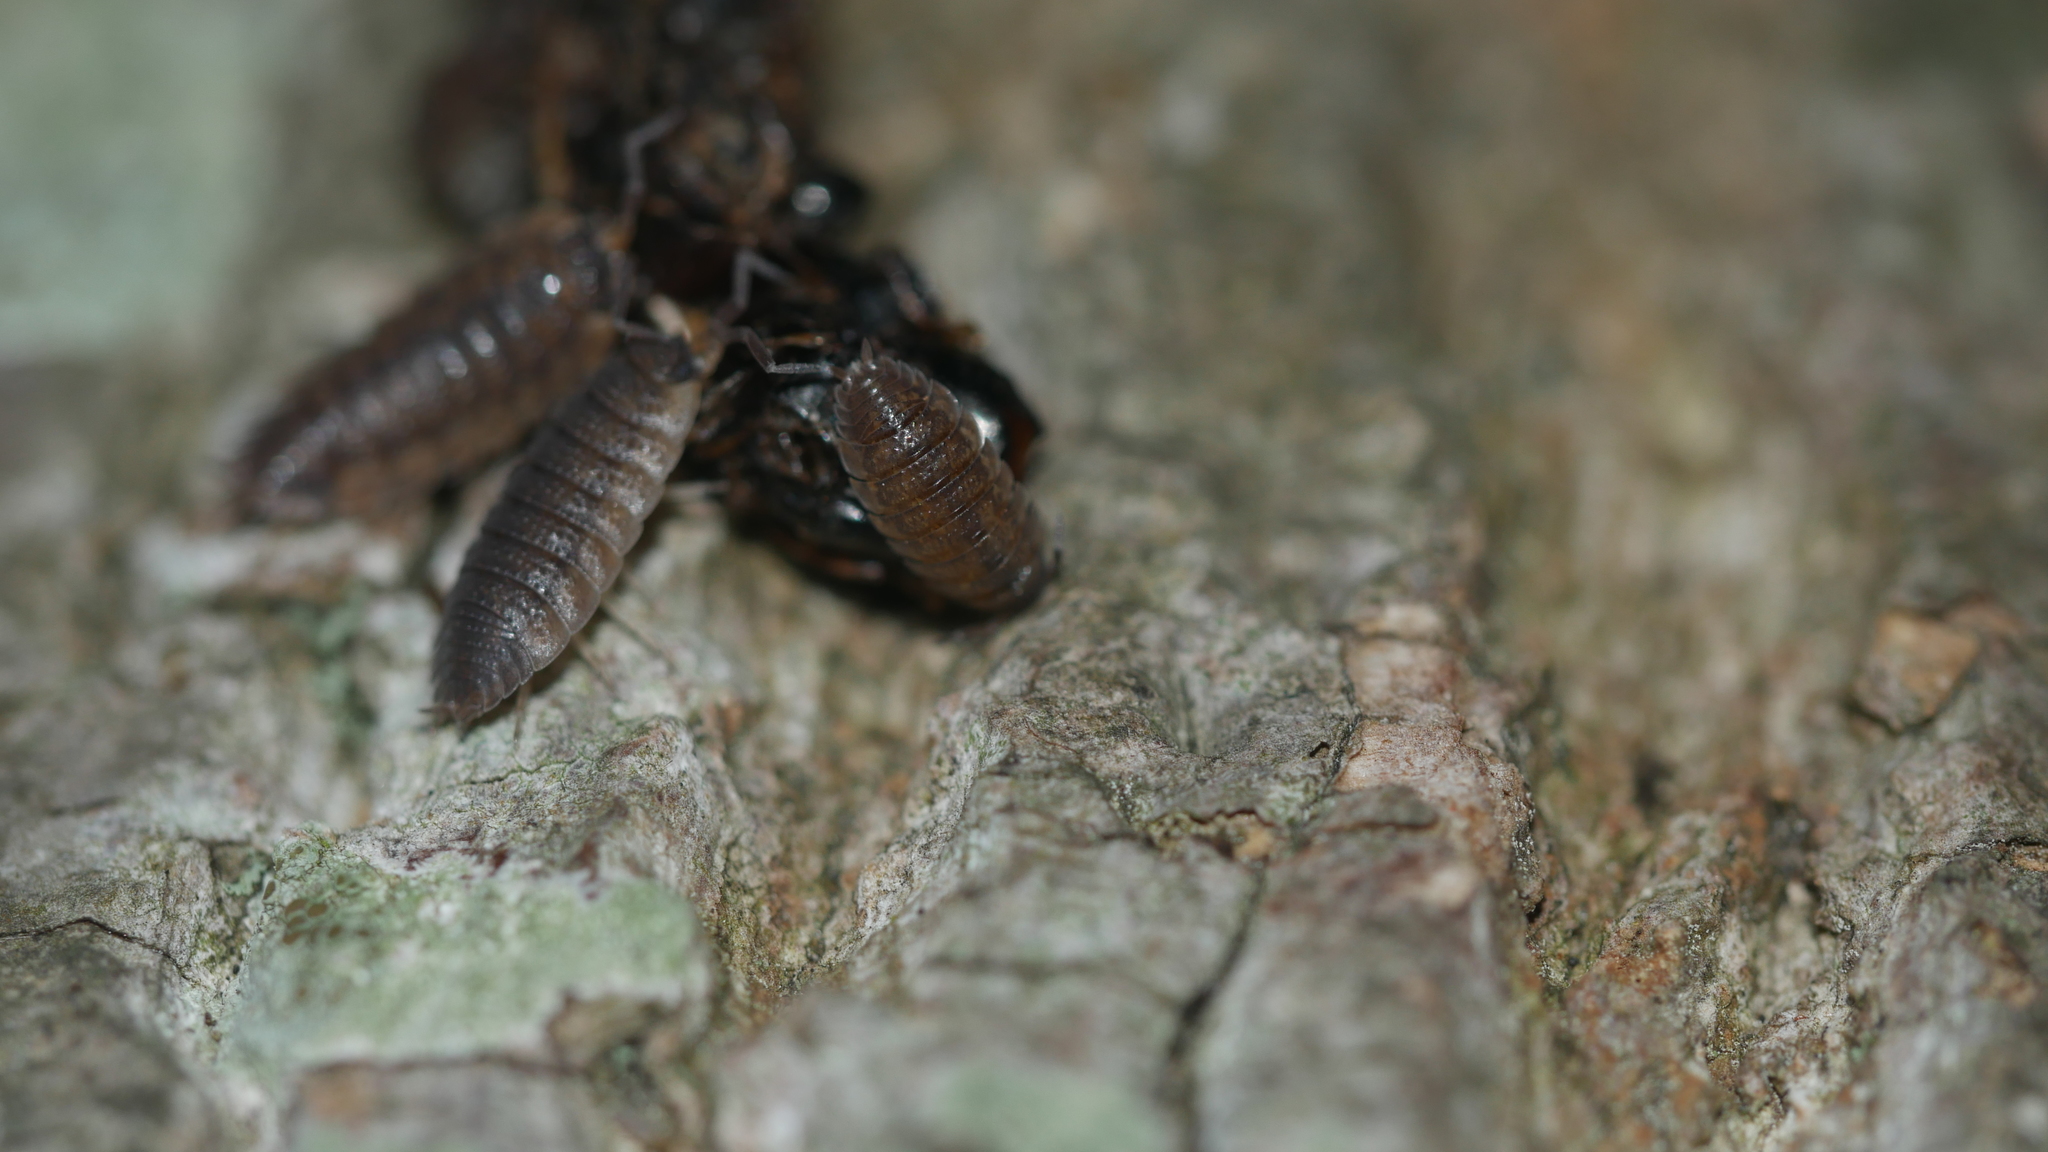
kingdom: Animalia
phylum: Arthropoda
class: Malacostraca
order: Isopoda
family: Porcellionidae
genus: Porcellio
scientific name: Porcellio scaber
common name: Common rough woodlouse
